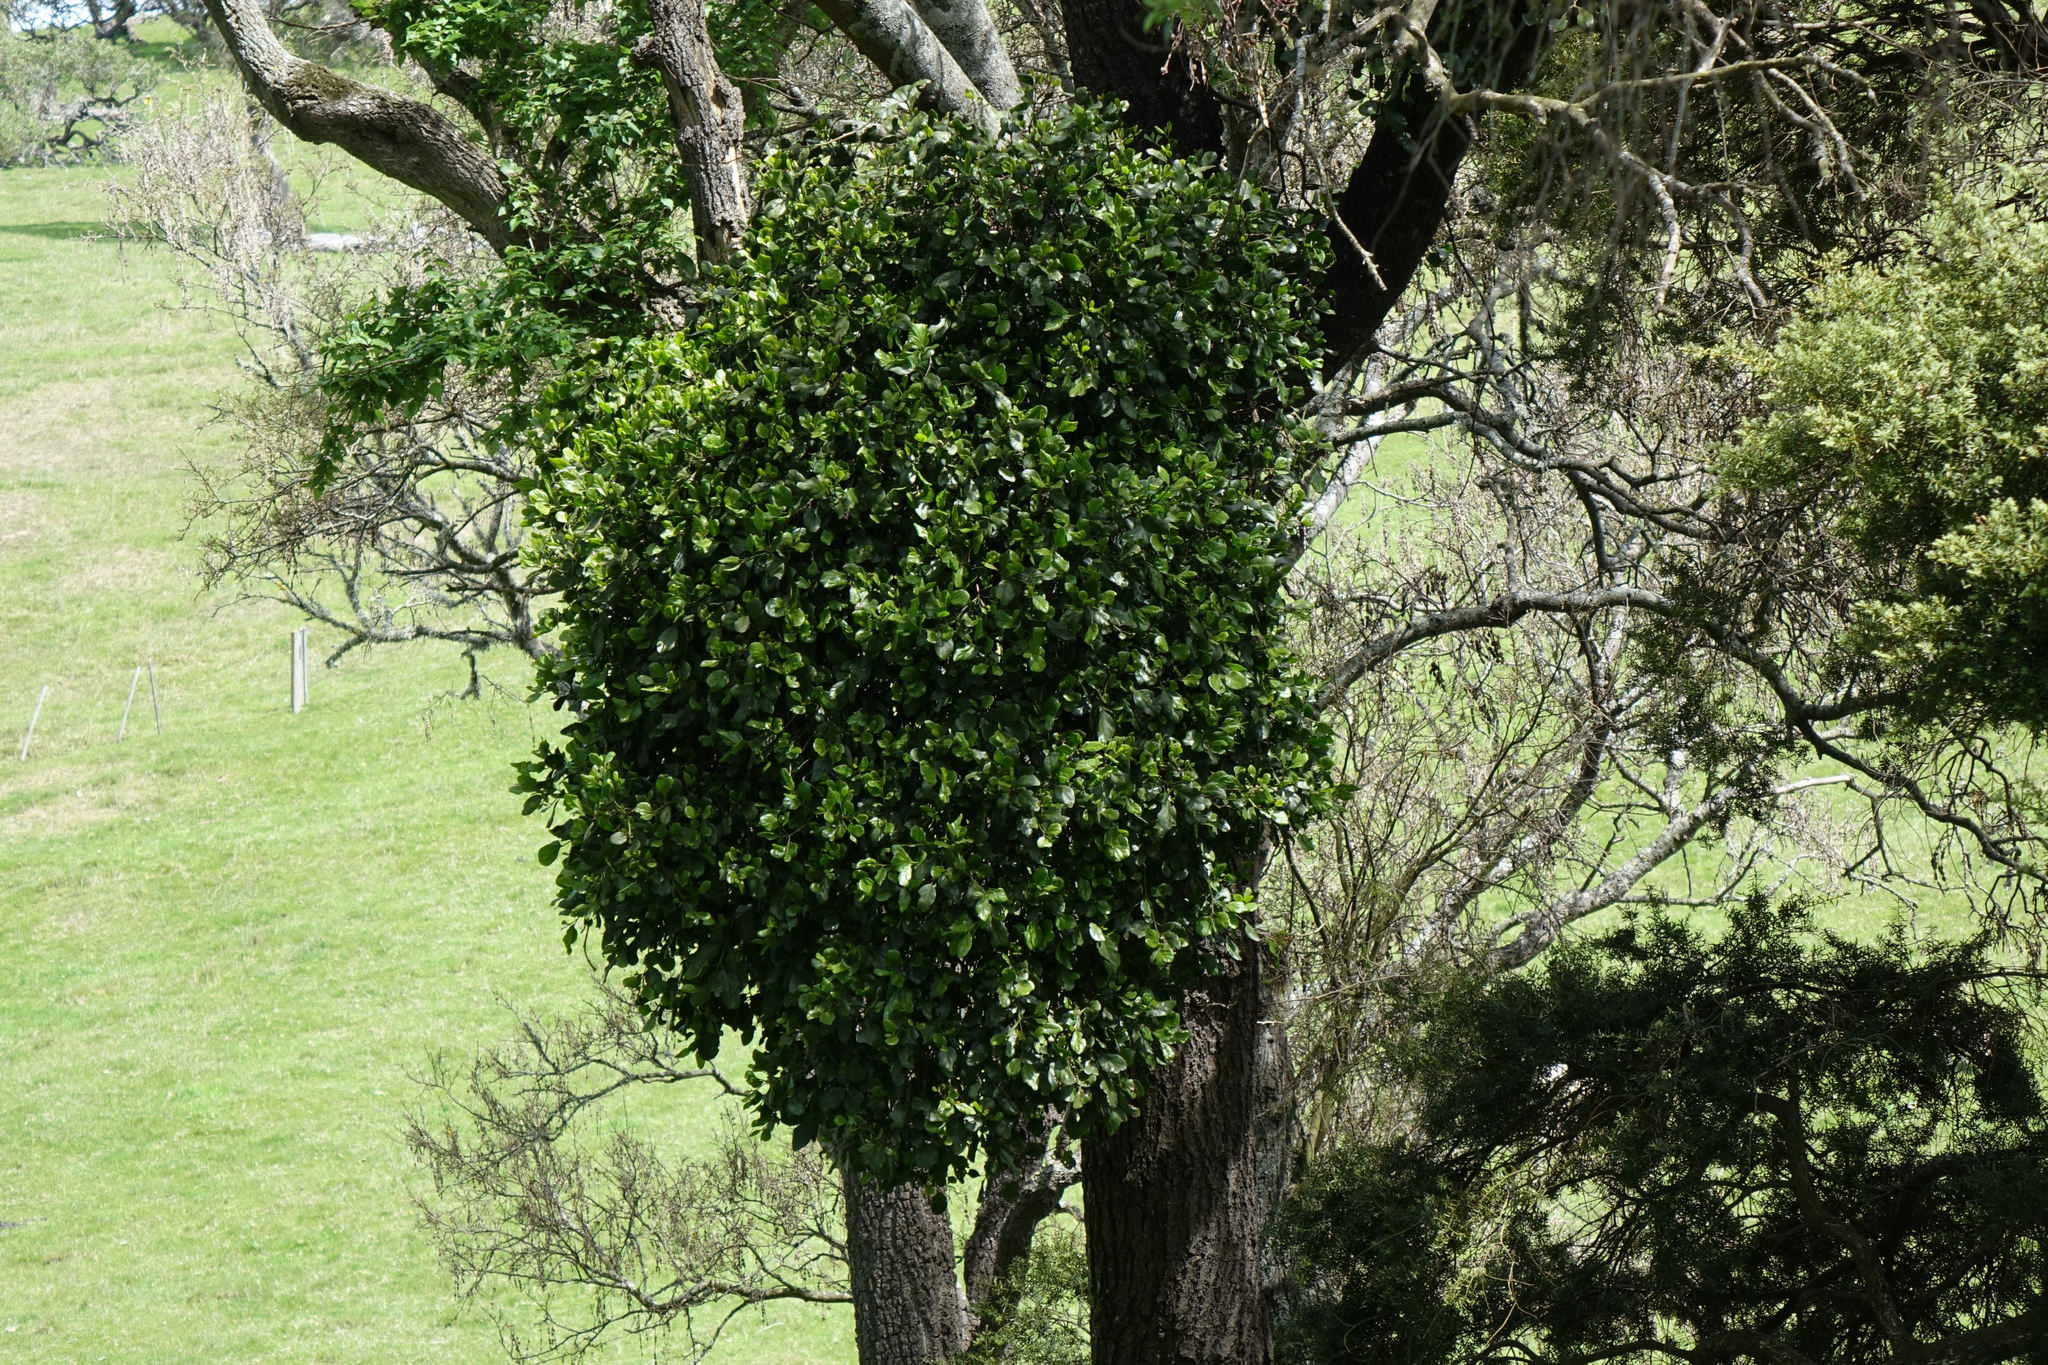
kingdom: Plantae
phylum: Tracheophyta
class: Magnoliopsida
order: Santalales
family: Loranthaceae
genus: Ileostylus
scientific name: Ileostylus micranthus
